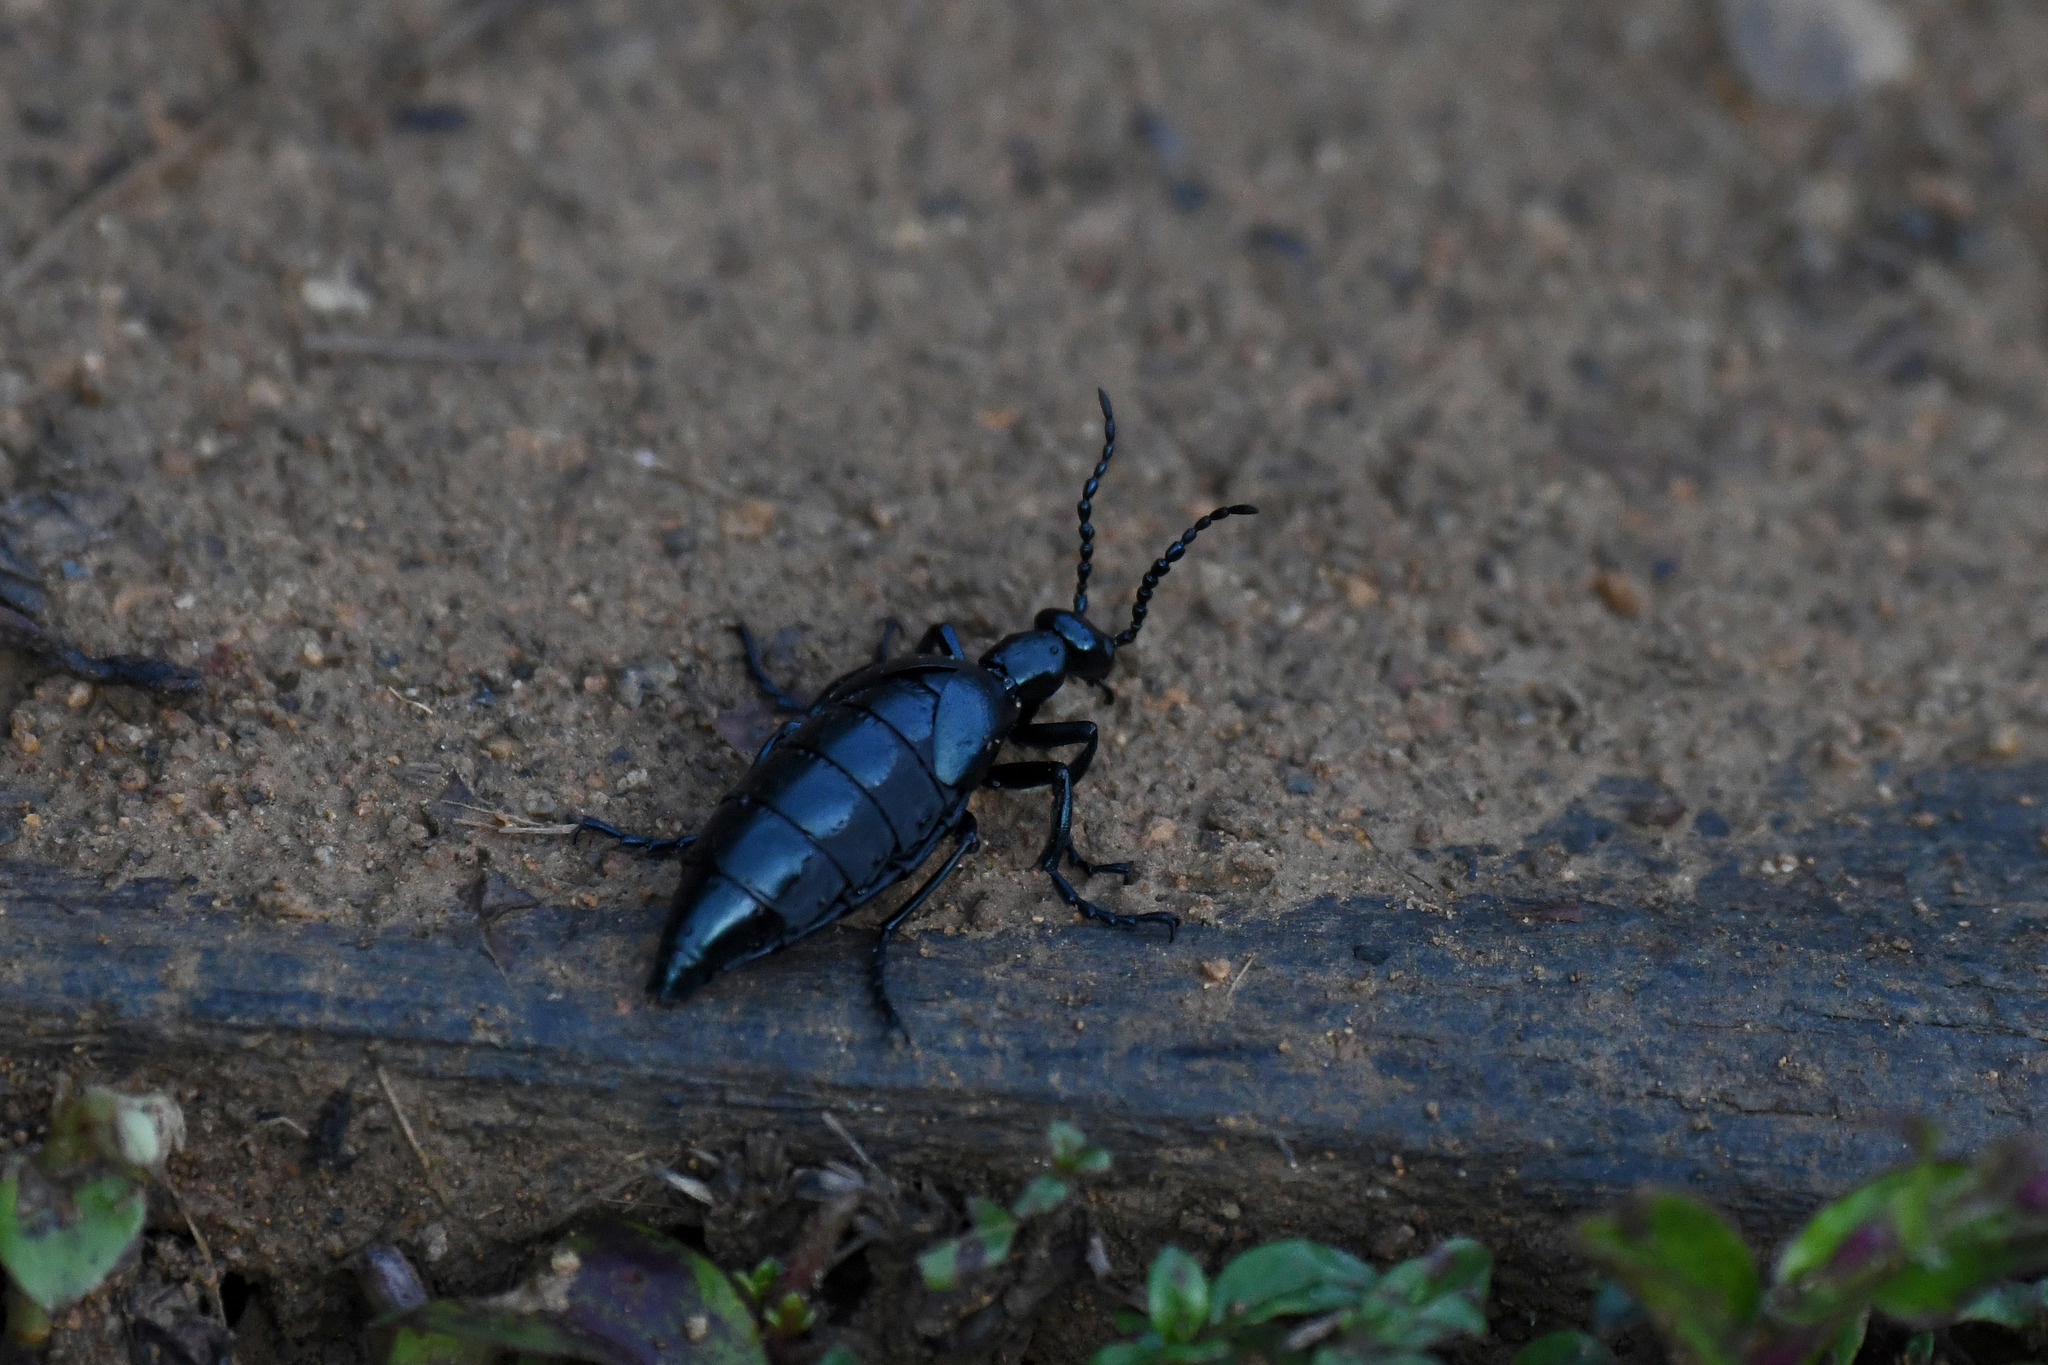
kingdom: Animalia
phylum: Arthropoda
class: Insecta
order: Coleoptera
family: Meloidae
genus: Meloe
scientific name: Meloe tropicus
